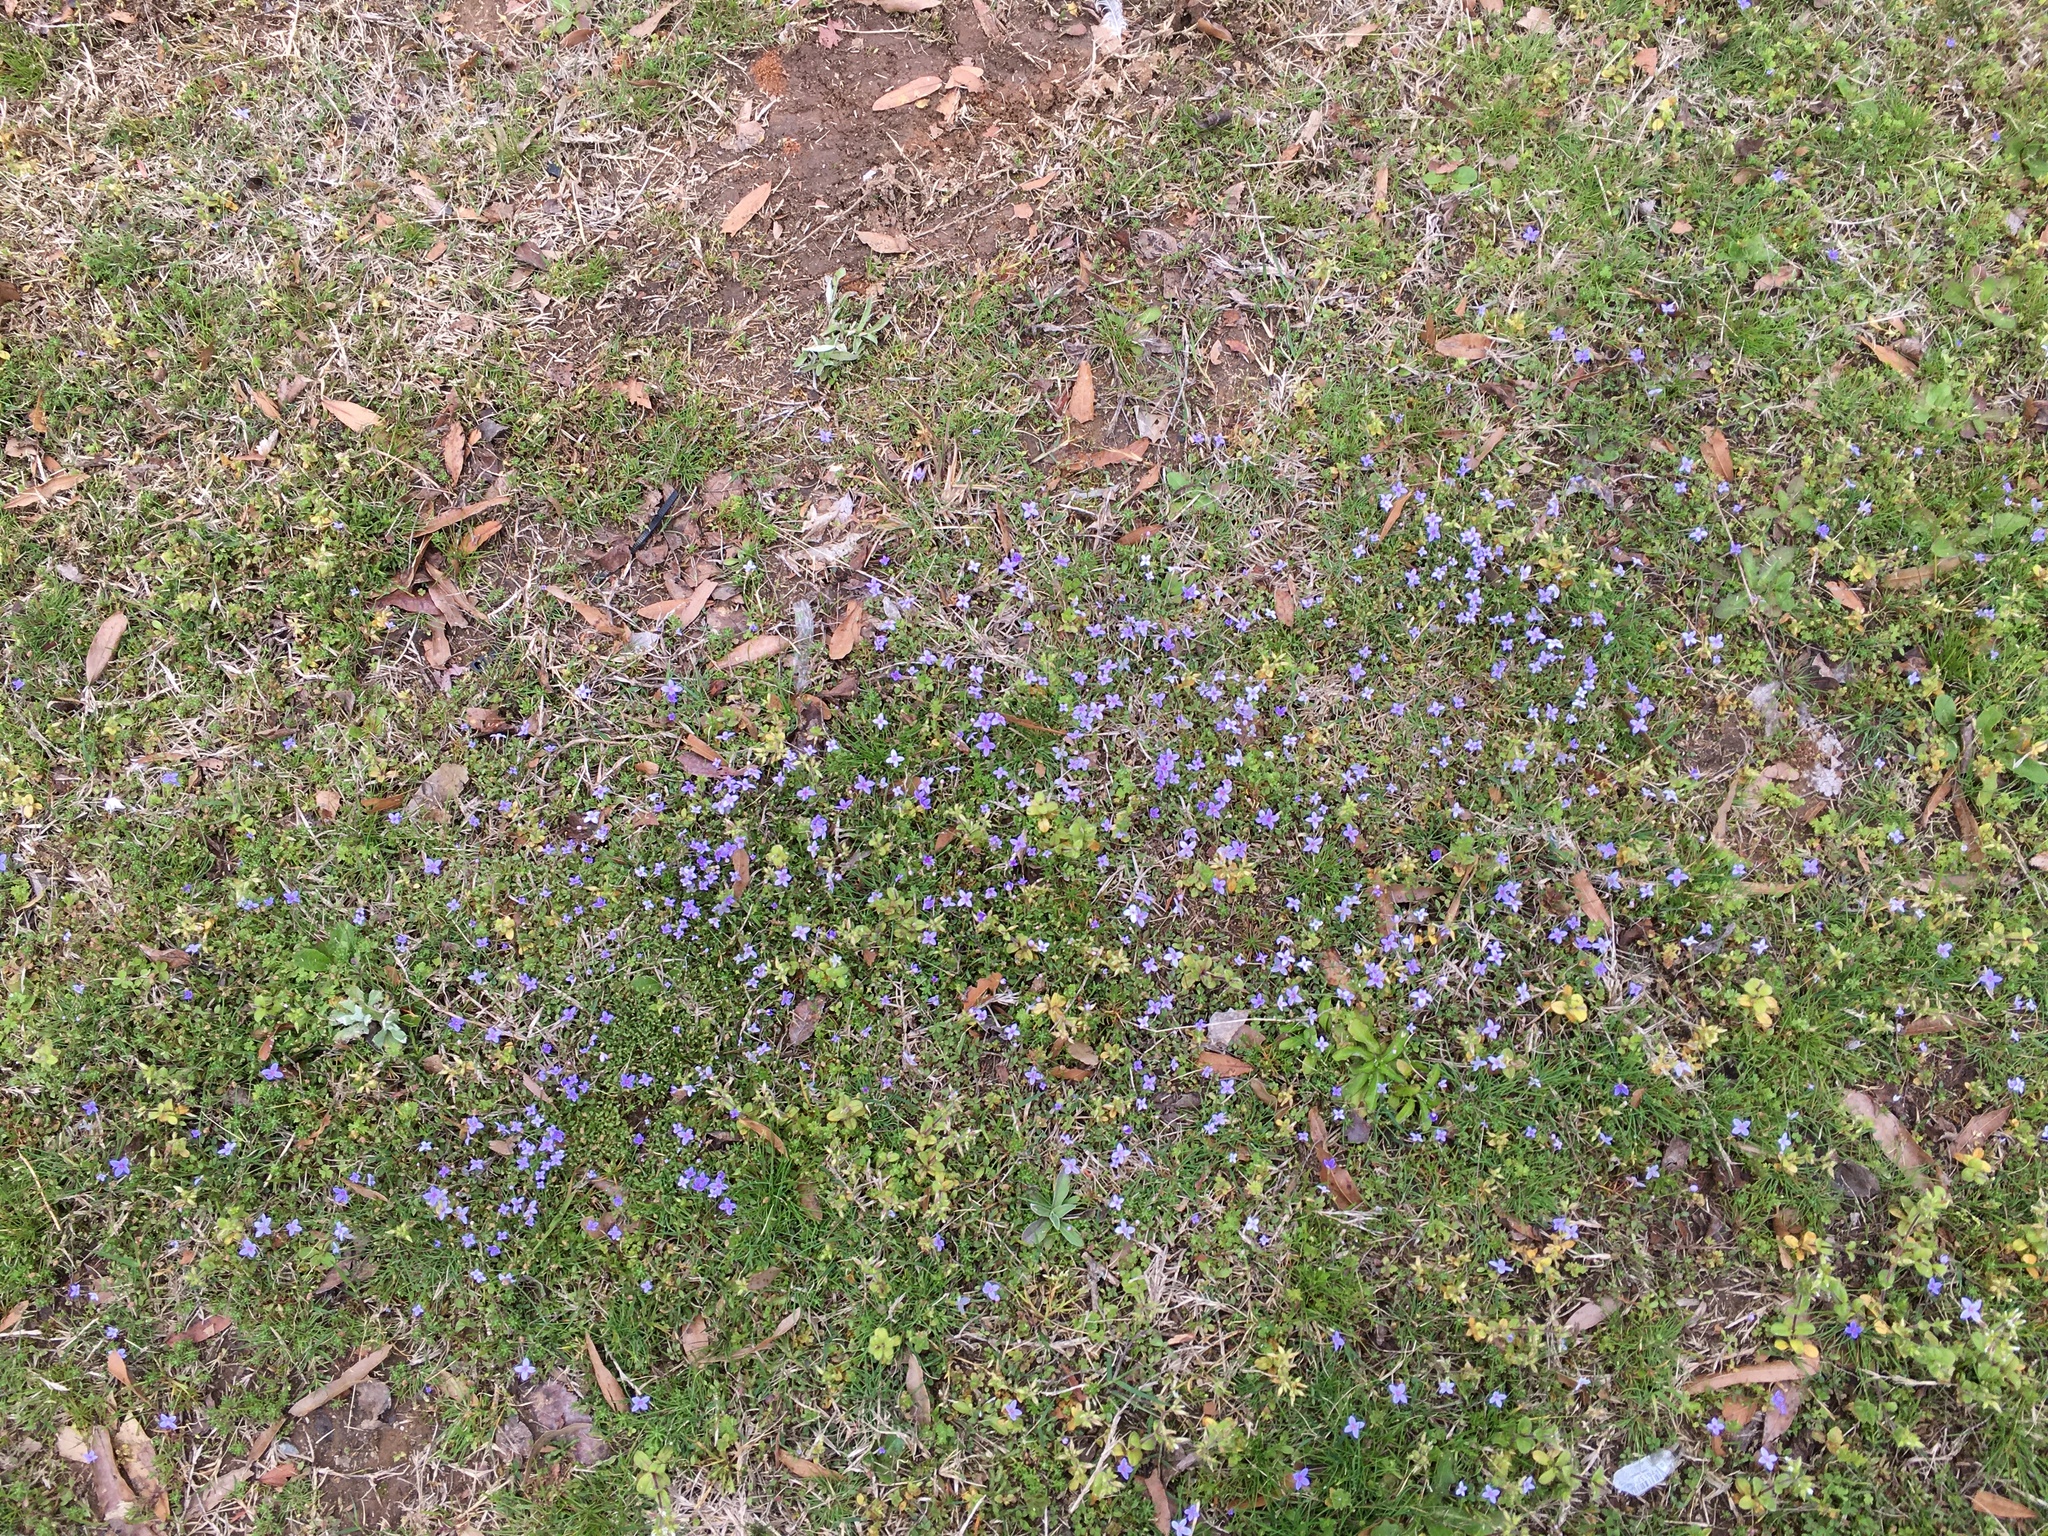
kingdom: Plantae
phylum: Tracheophyta
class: Magnoliopsida
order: Gentianales
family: Rubiaceae
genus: Houstonia
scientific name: Houstonia pusilla
